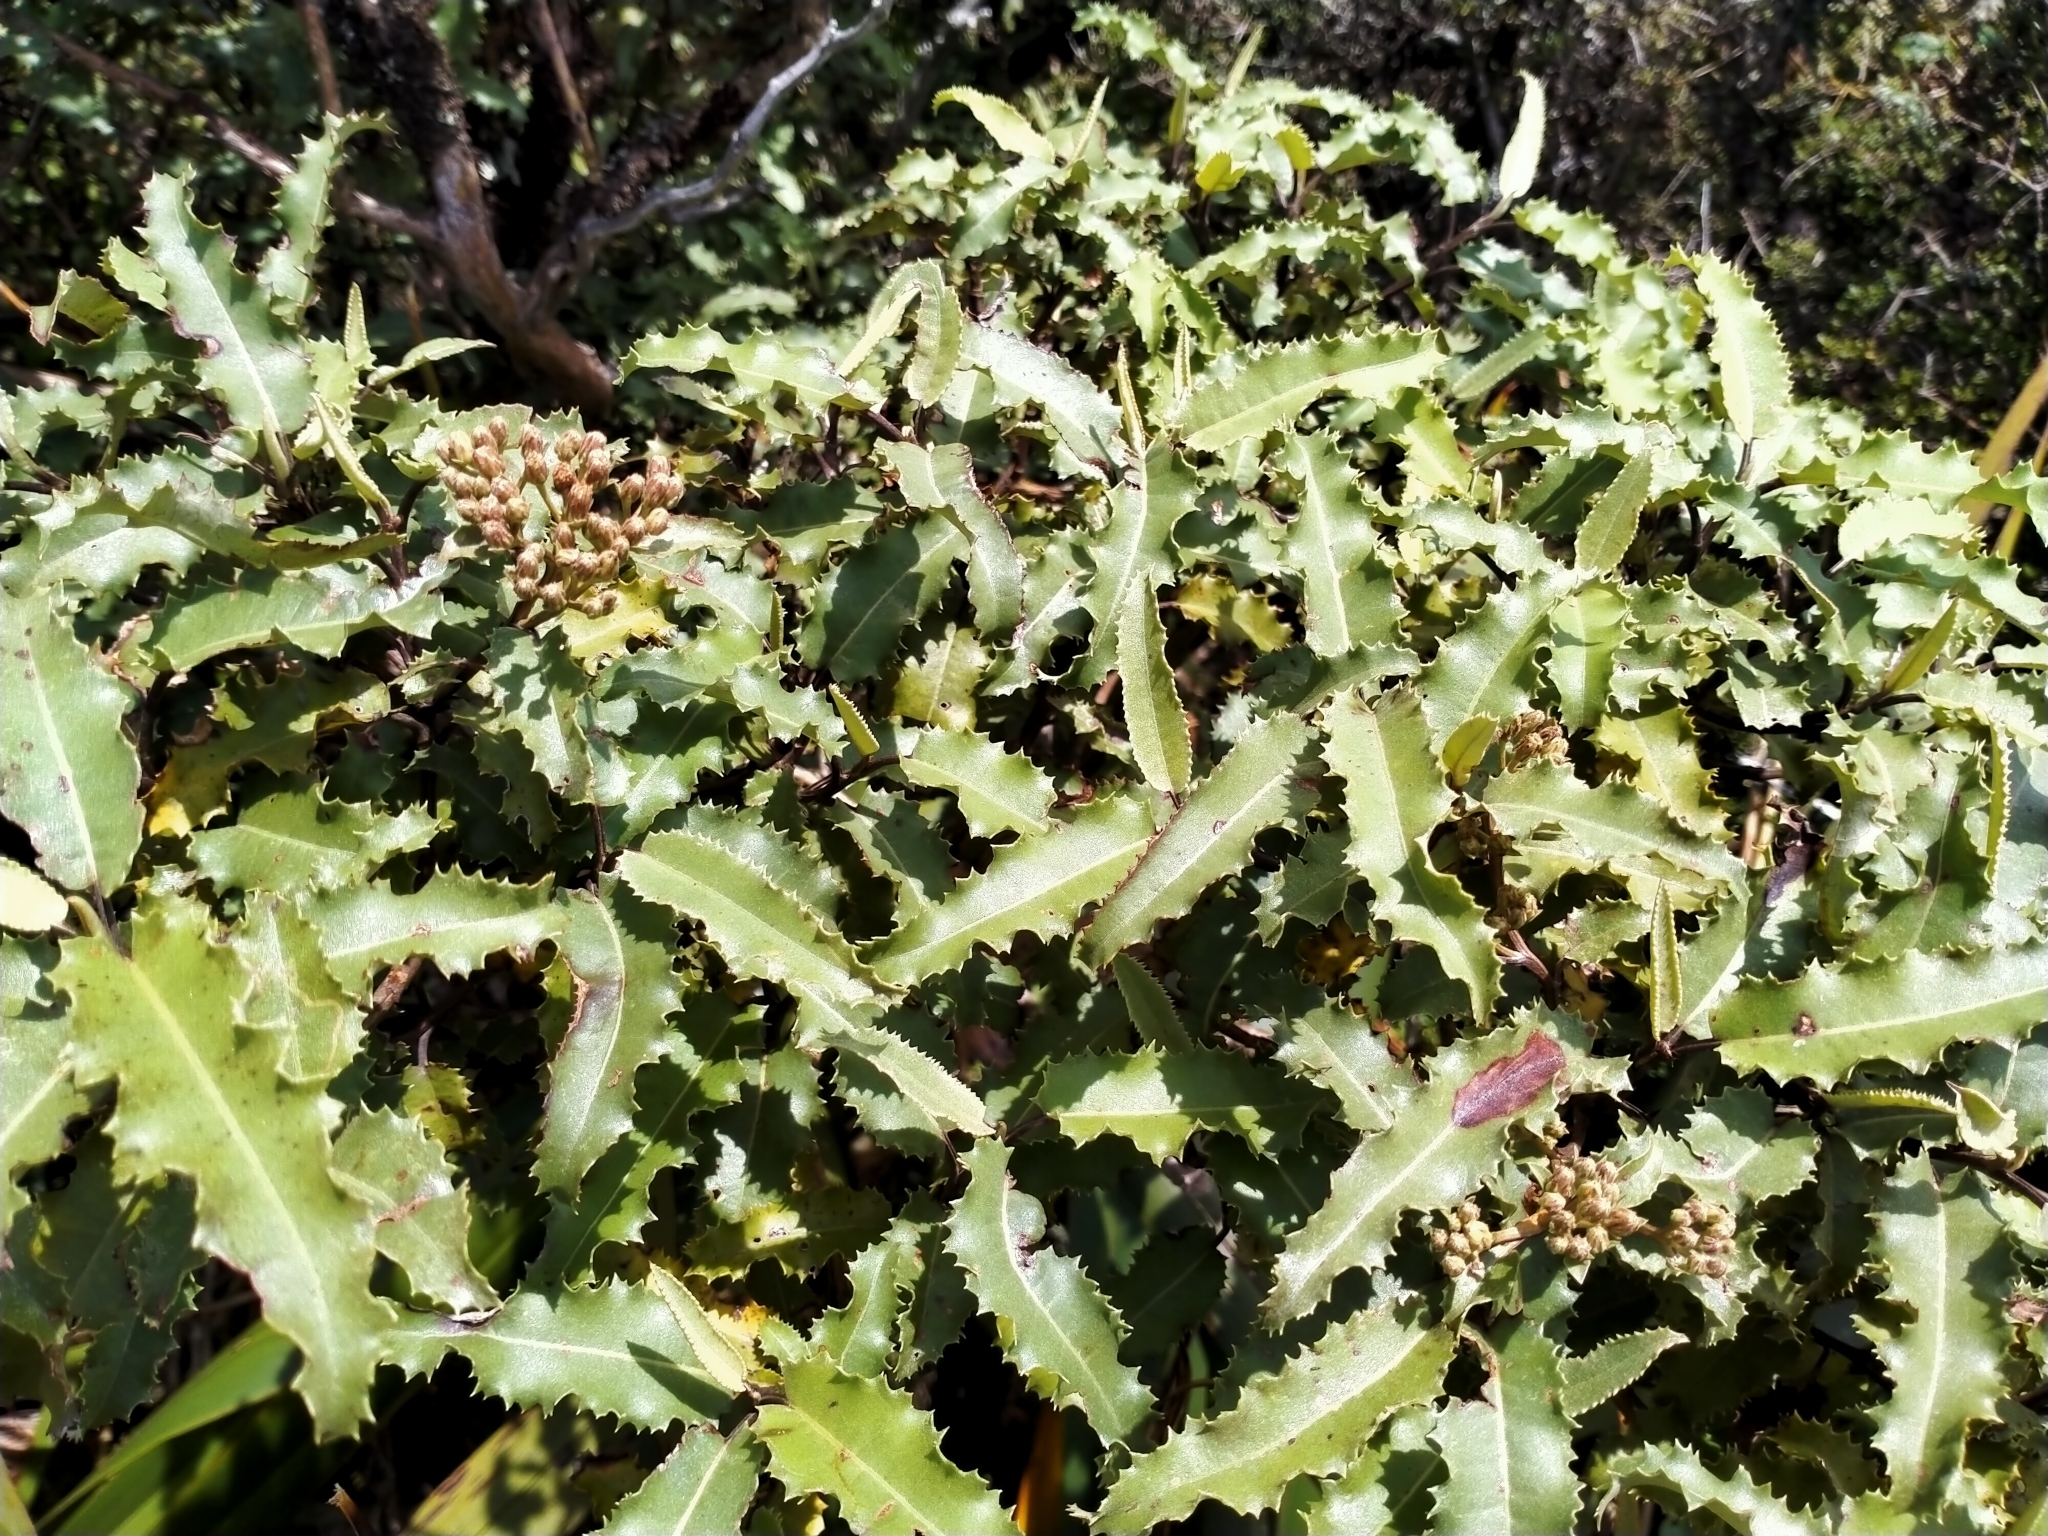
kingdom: Plantae
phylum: Tracheophyta
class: Magnoliopsida
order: Asterales
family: Asteraceae
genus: Olearia
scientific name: Olearia ilicifolia
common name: Maori-holly
